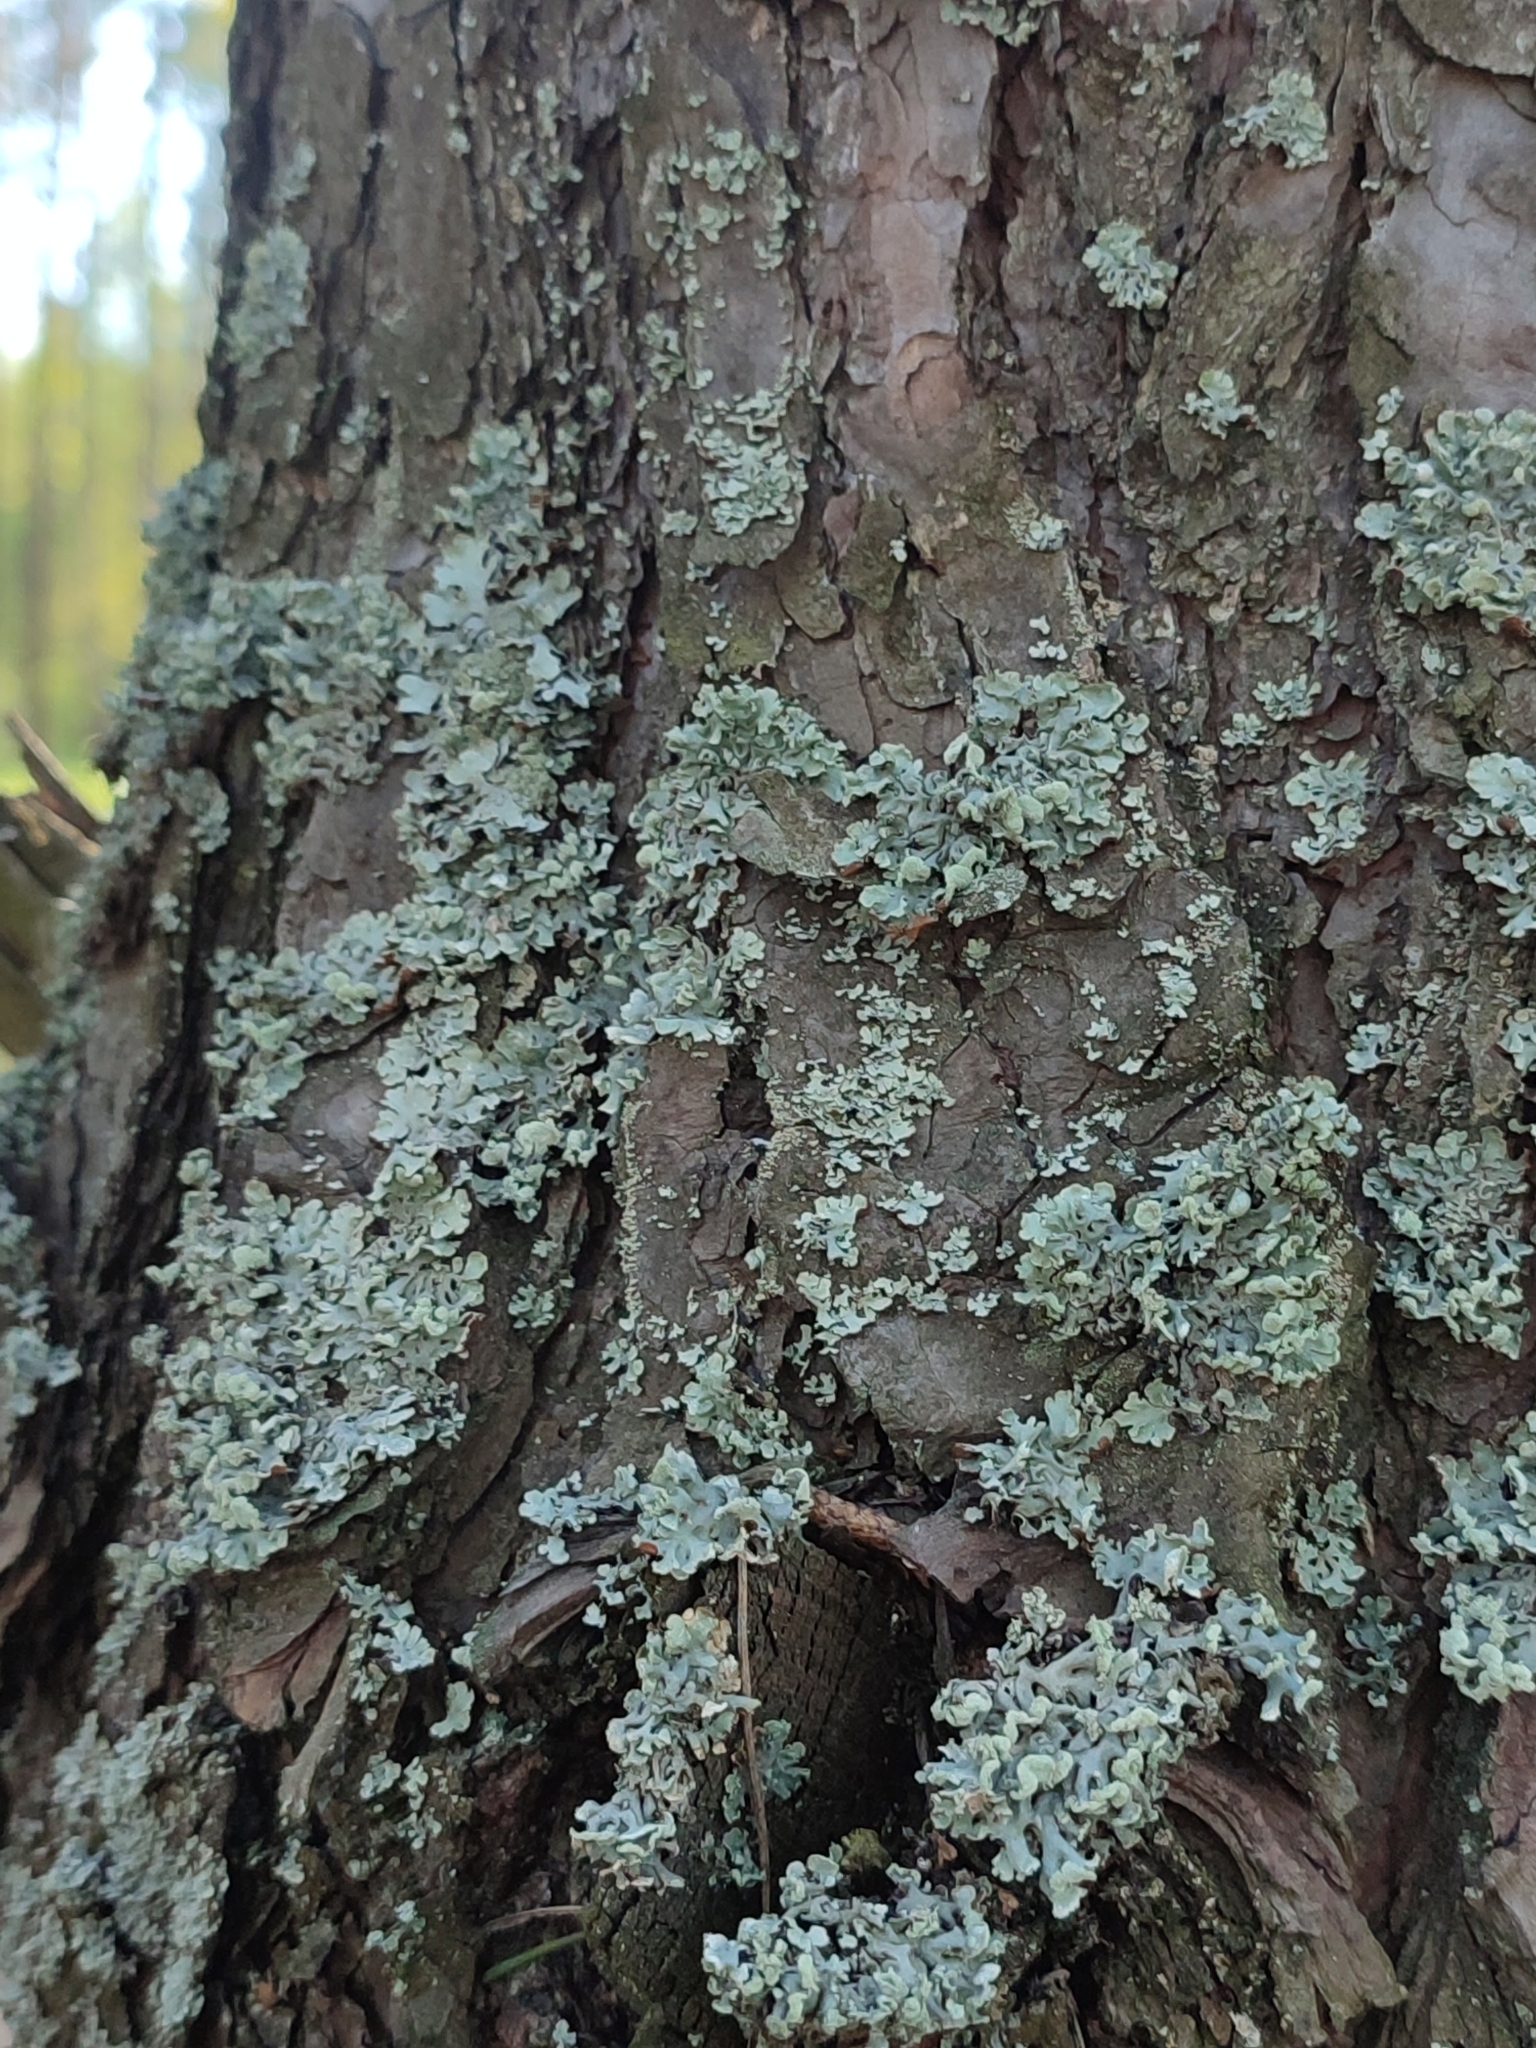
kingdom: Fungi
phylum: Ascomycota
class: Lecanoromycetes
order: Lecanorales
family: Parmeliaceae
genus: Hypogymnia
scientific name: Hypogymnia physodes
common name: Dark crottle
